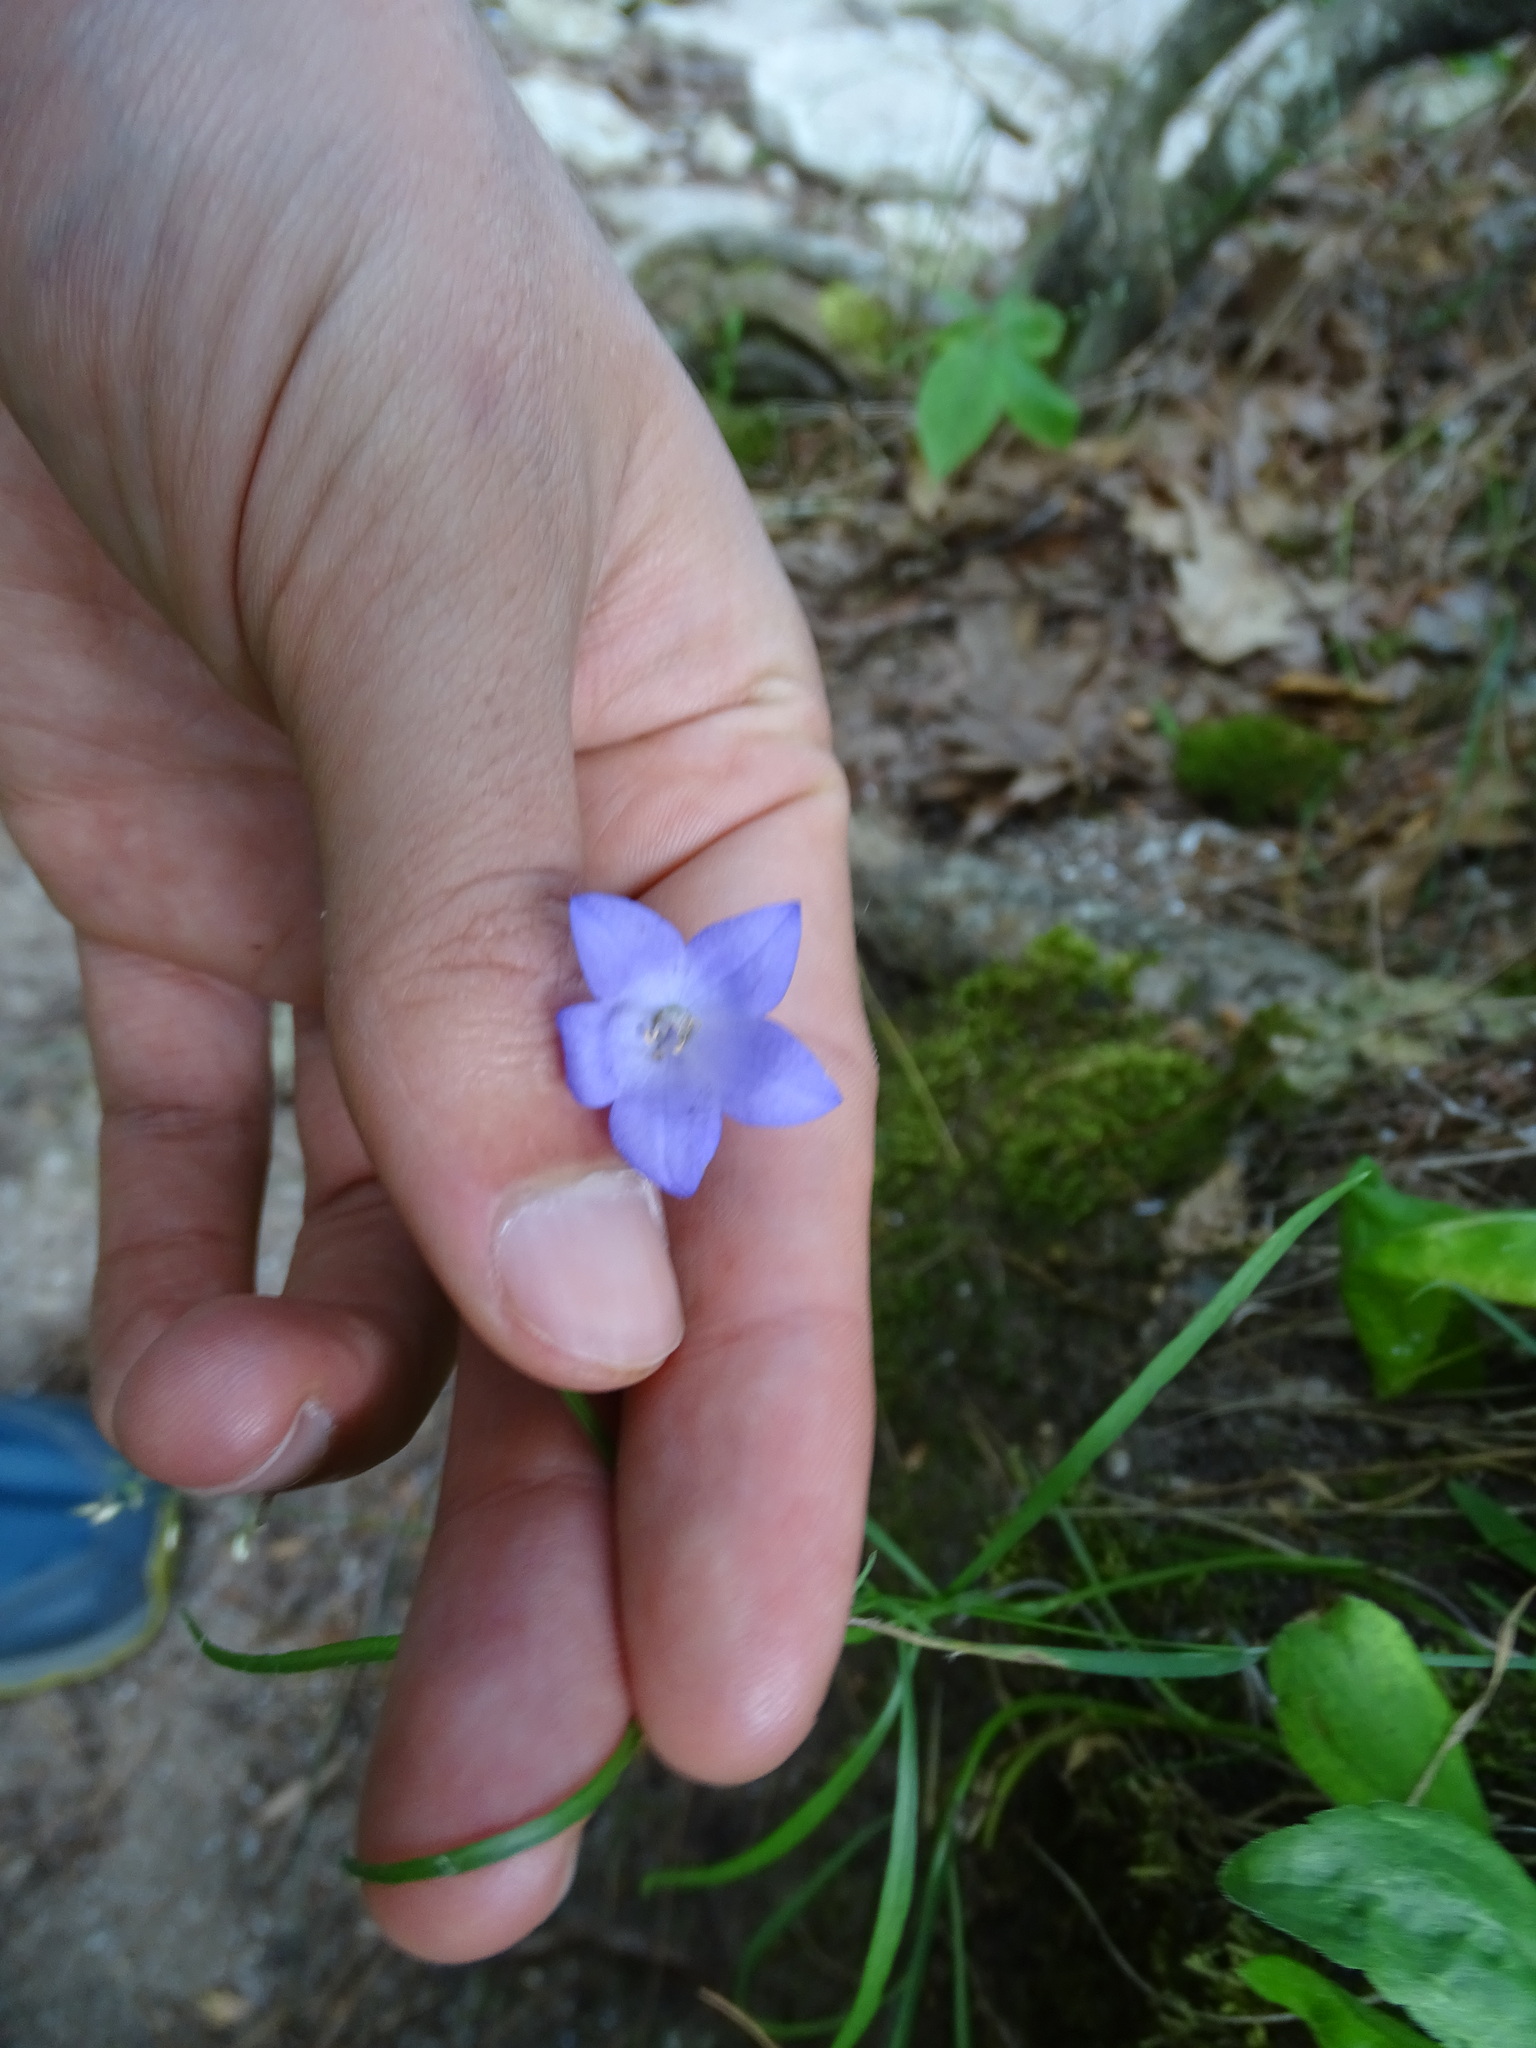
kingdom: Plantae
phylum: Tracheophyta
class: Magnoliopsida
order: Asterales
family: Campanulaceae
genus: Campanula
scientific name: Campanula intercedens
